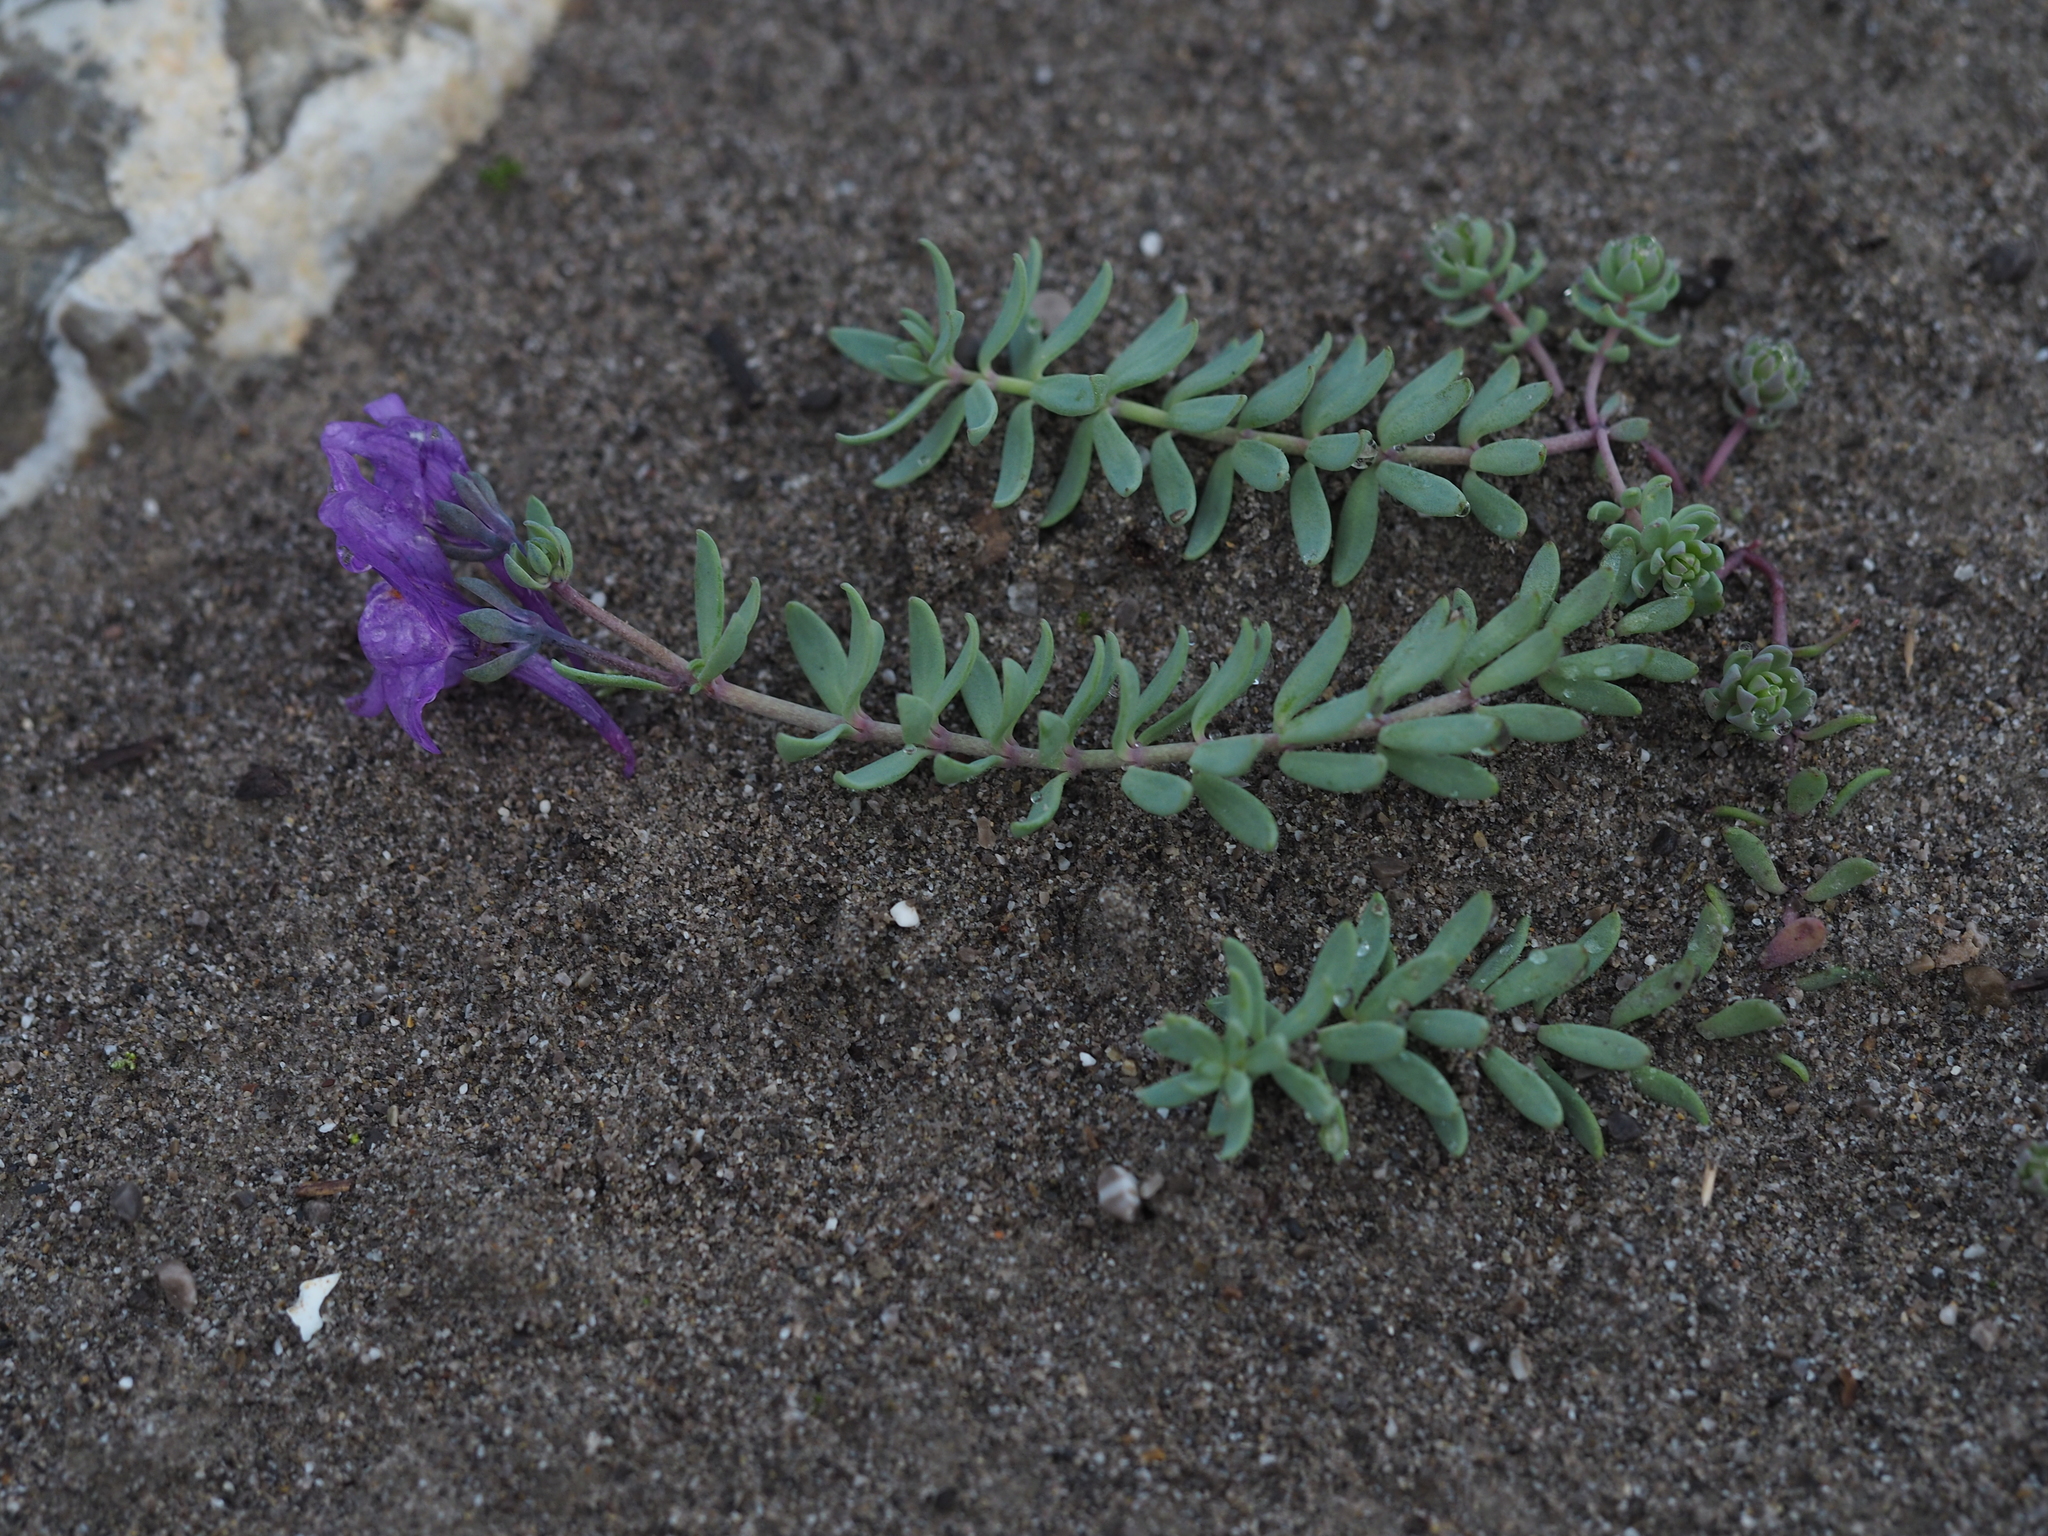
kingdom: Plantae
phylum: Tracheophyta
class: Magnoliopsida
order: Lamiales
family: Plantaginaceae
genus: Linaria
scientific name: Linaria alpina
